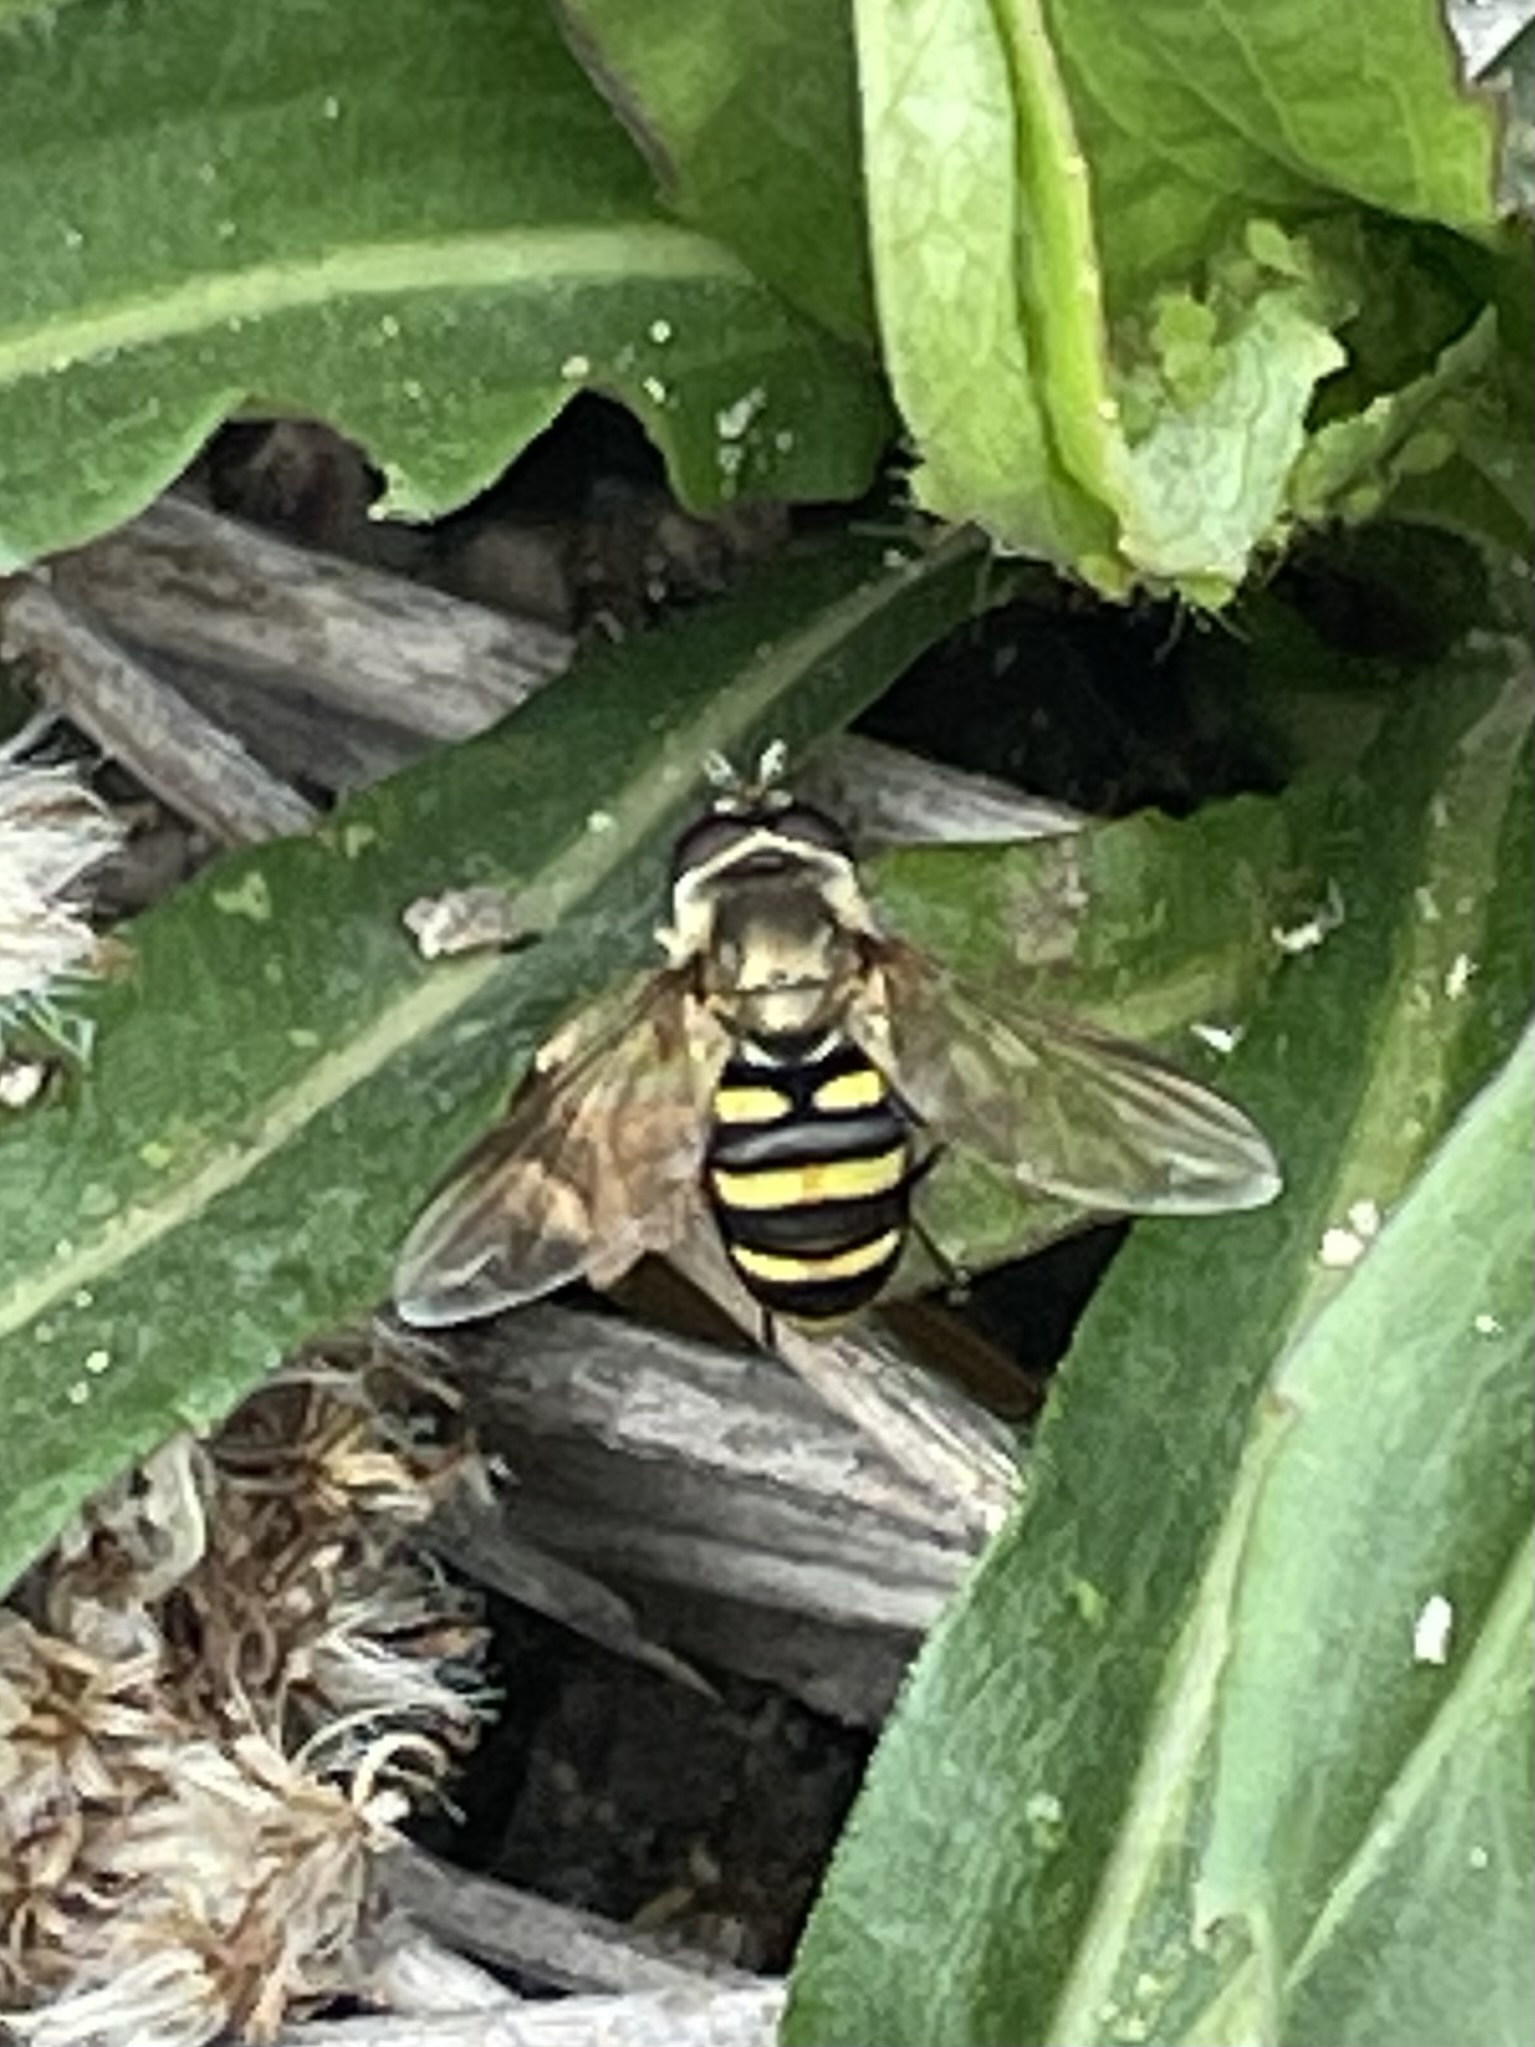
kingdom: Animalia
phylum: Arthropoda
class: Insecta
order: Diptera
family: Syrphidae
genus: Eupeodes
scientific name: Eupeodes
